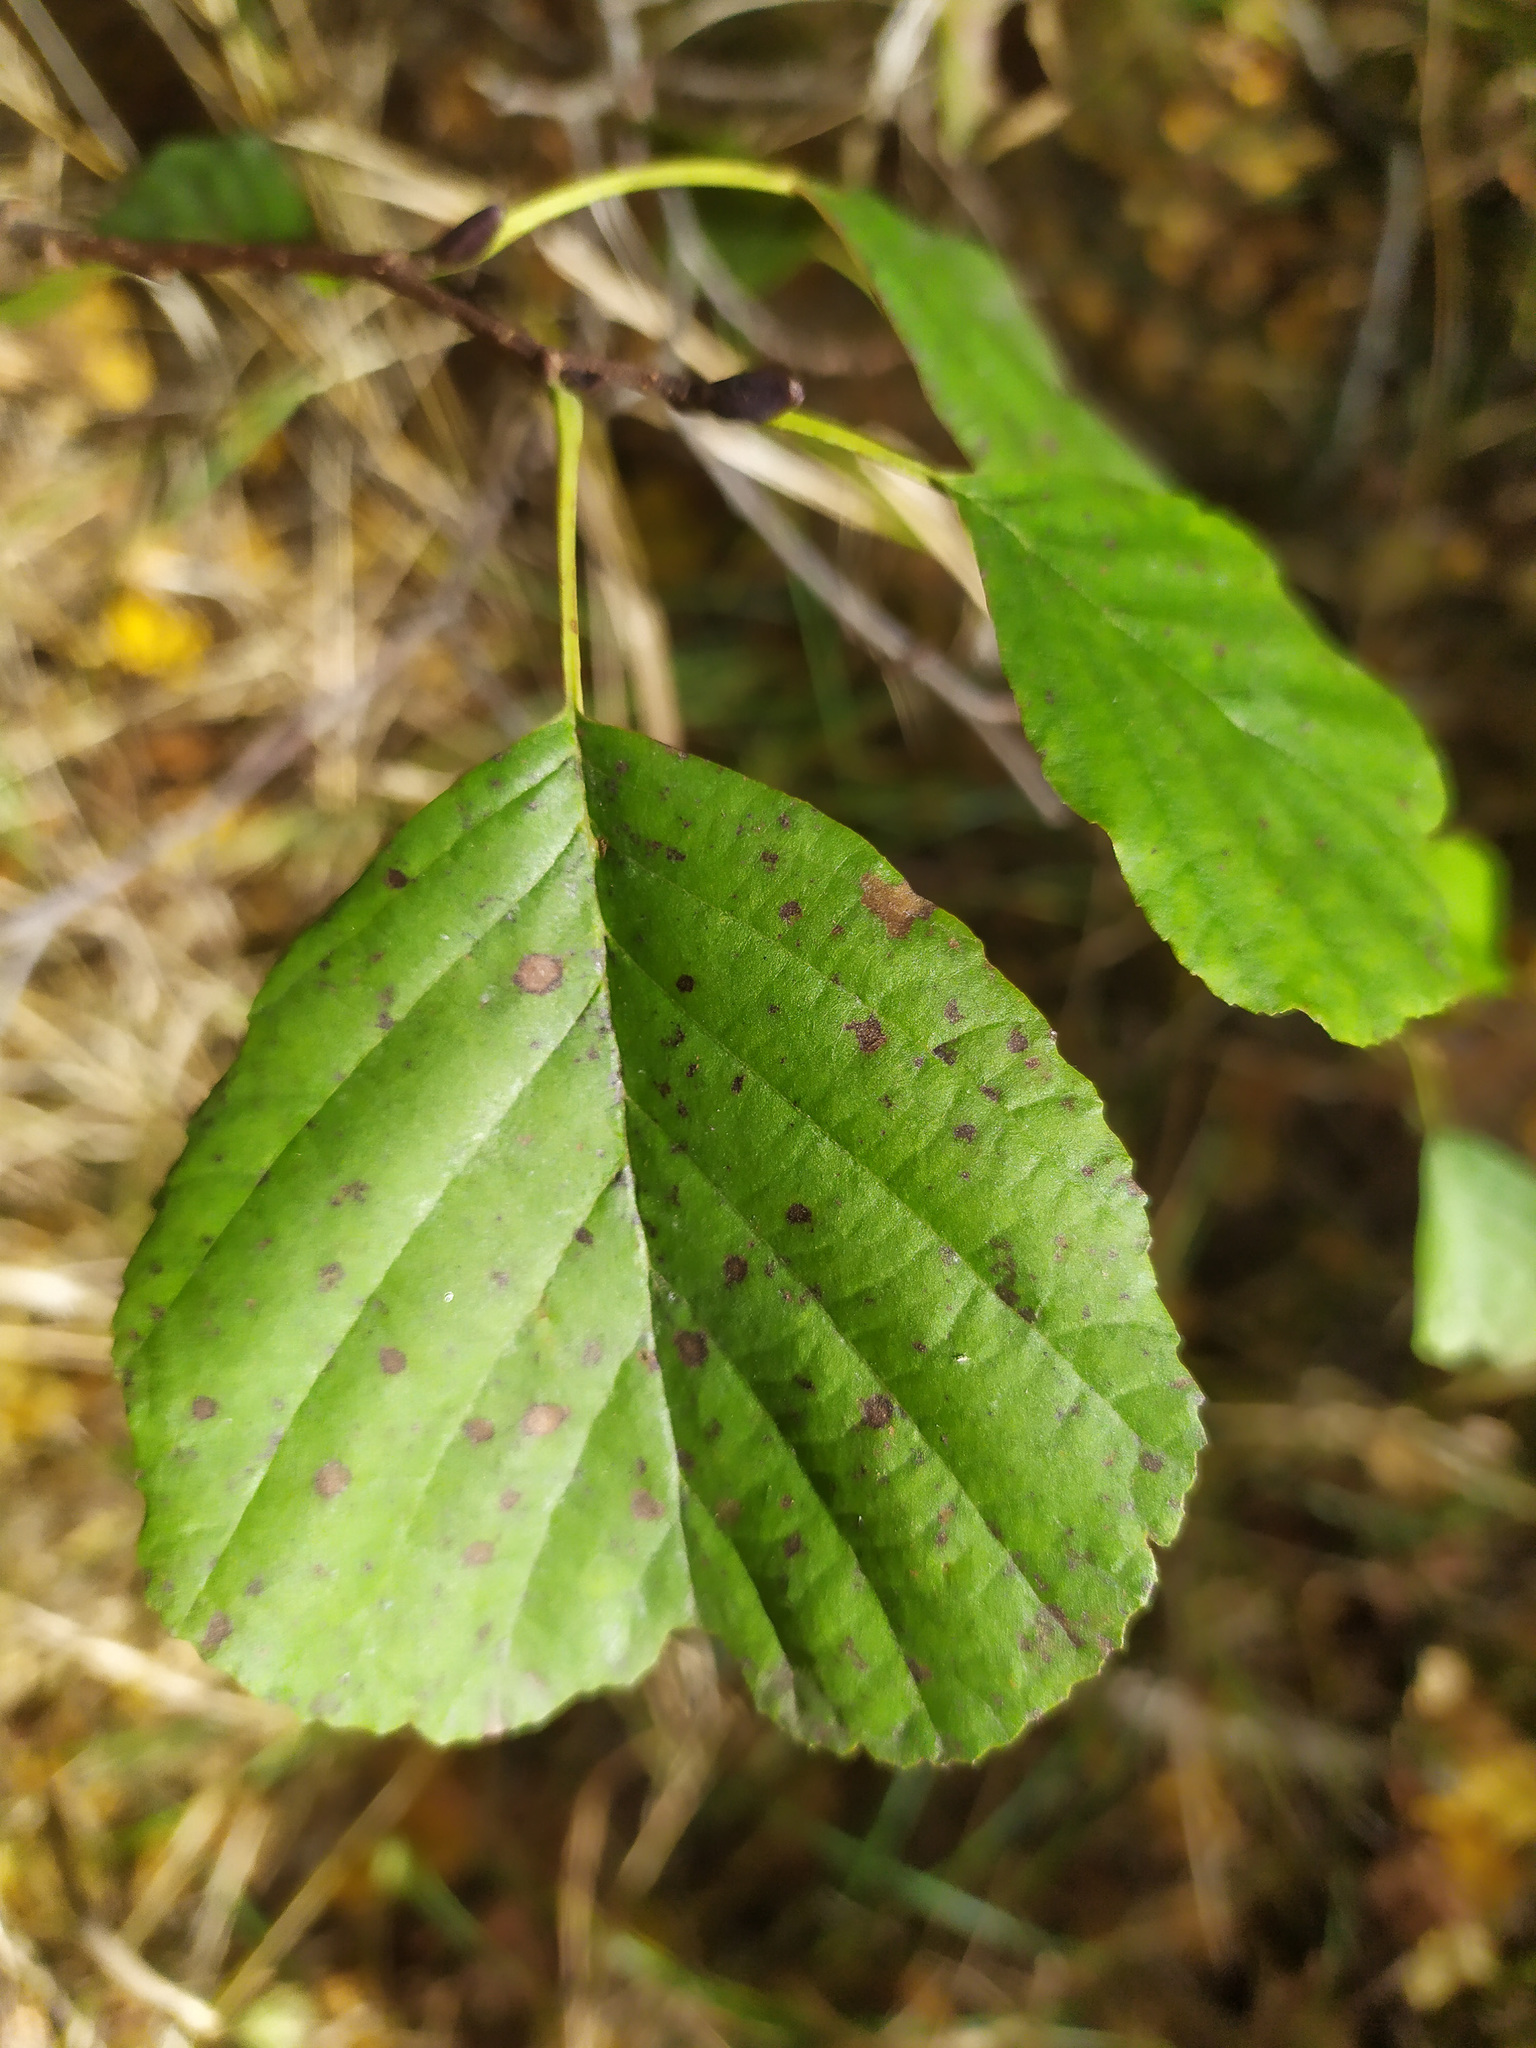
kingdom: Plantae
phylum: Tracheophyta
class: Magnoliopsida
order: Fagales
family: Betulaceae
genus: Alnus
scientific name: Alnus glutinosa
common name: Black alder
